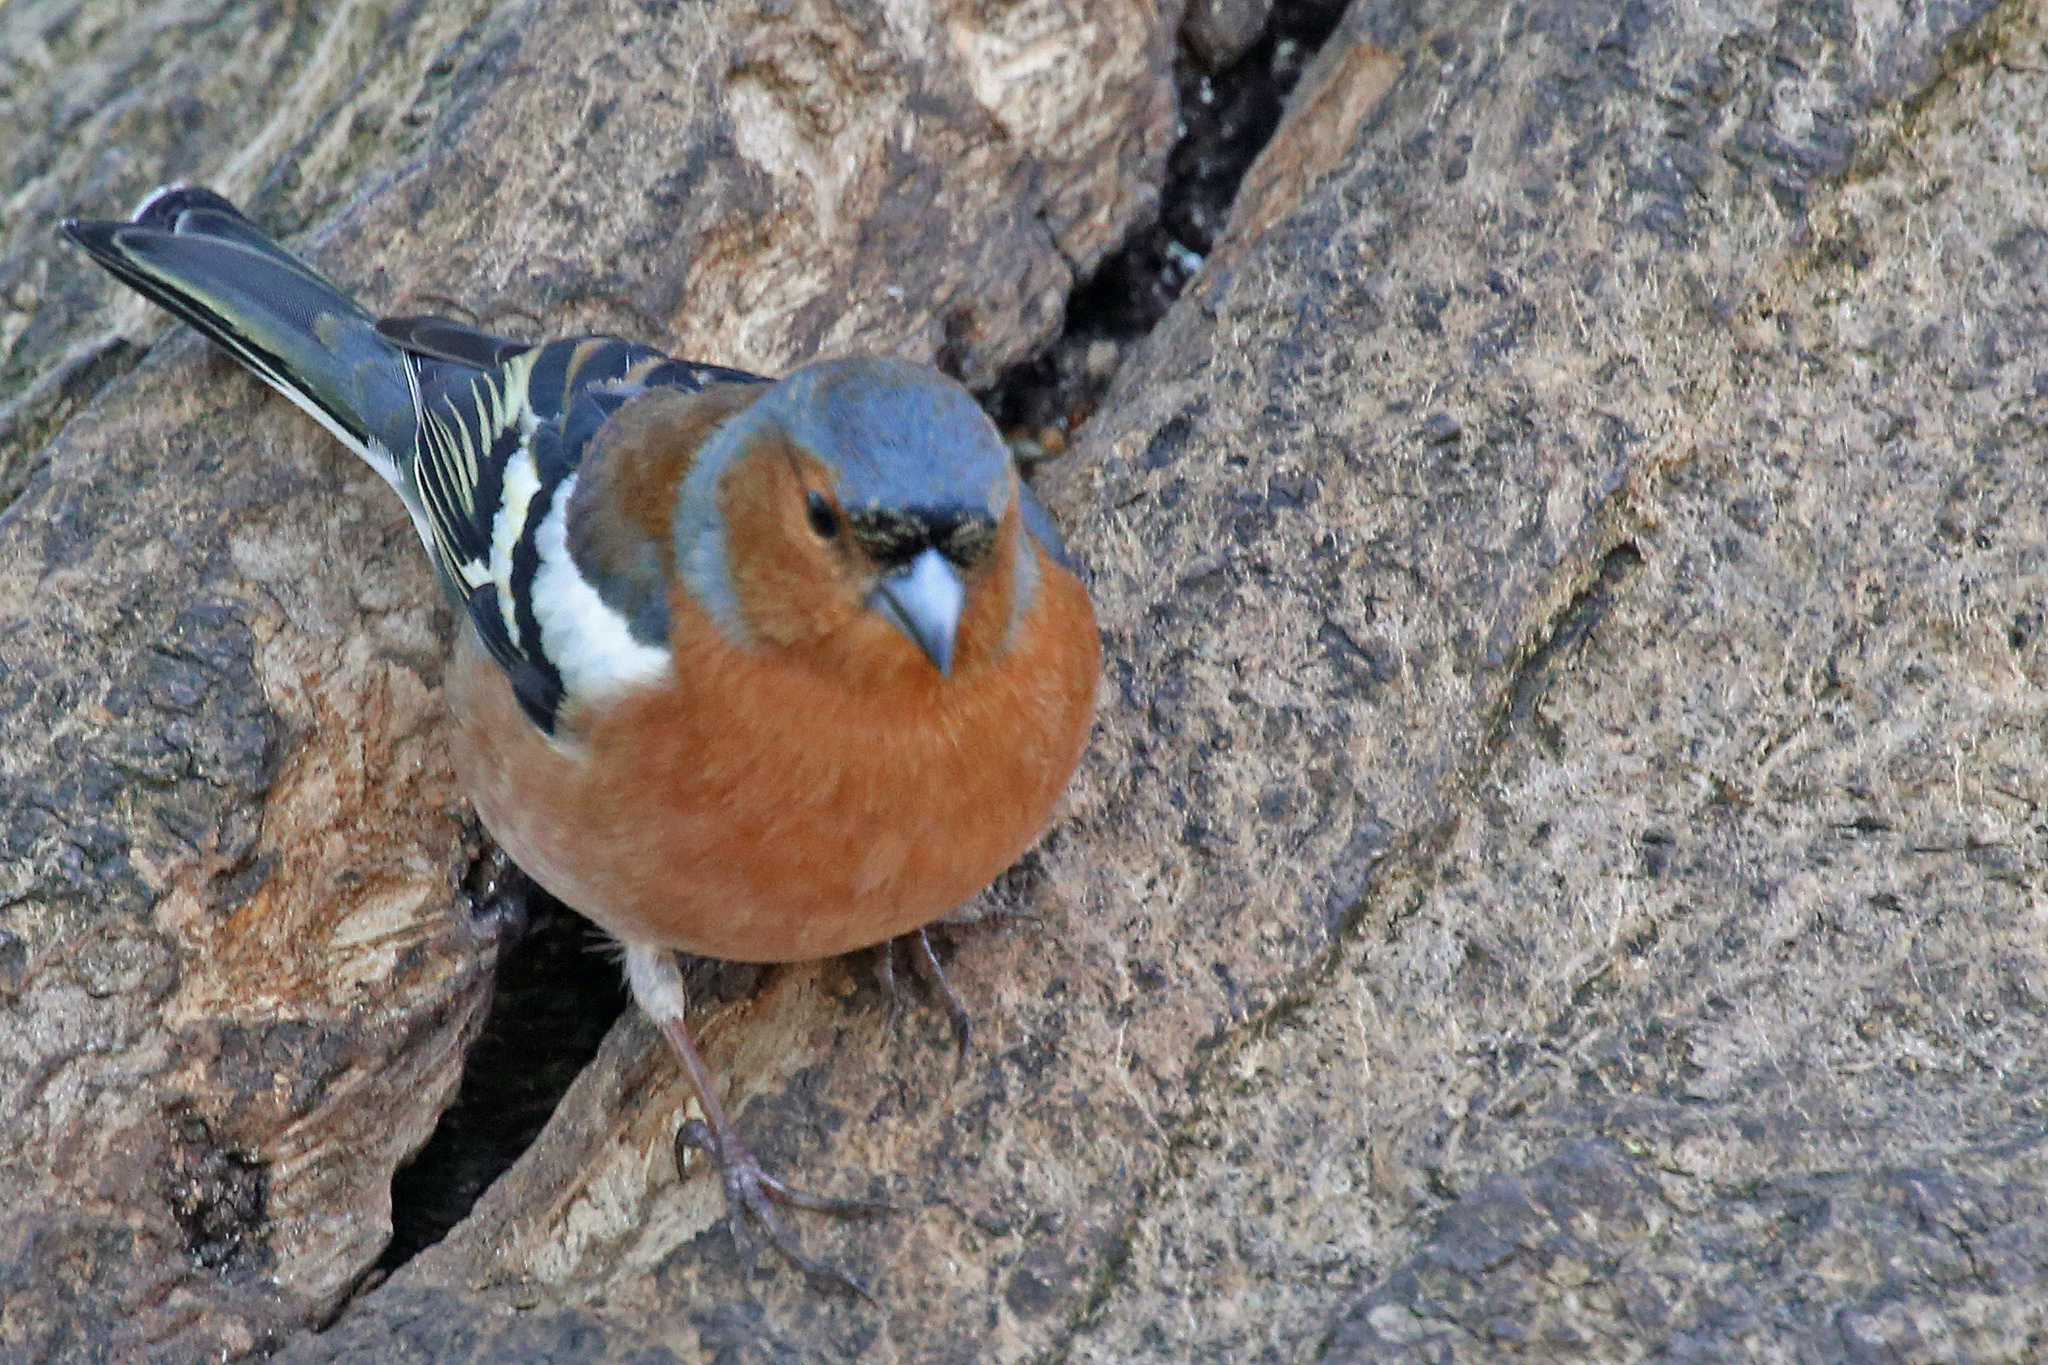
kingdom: Animalia
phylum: Chordata
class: Aves
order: Passeriformes
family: Fringillidae
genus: Fringilla
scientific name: Fringilla coelebs
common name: Common chaffinch
